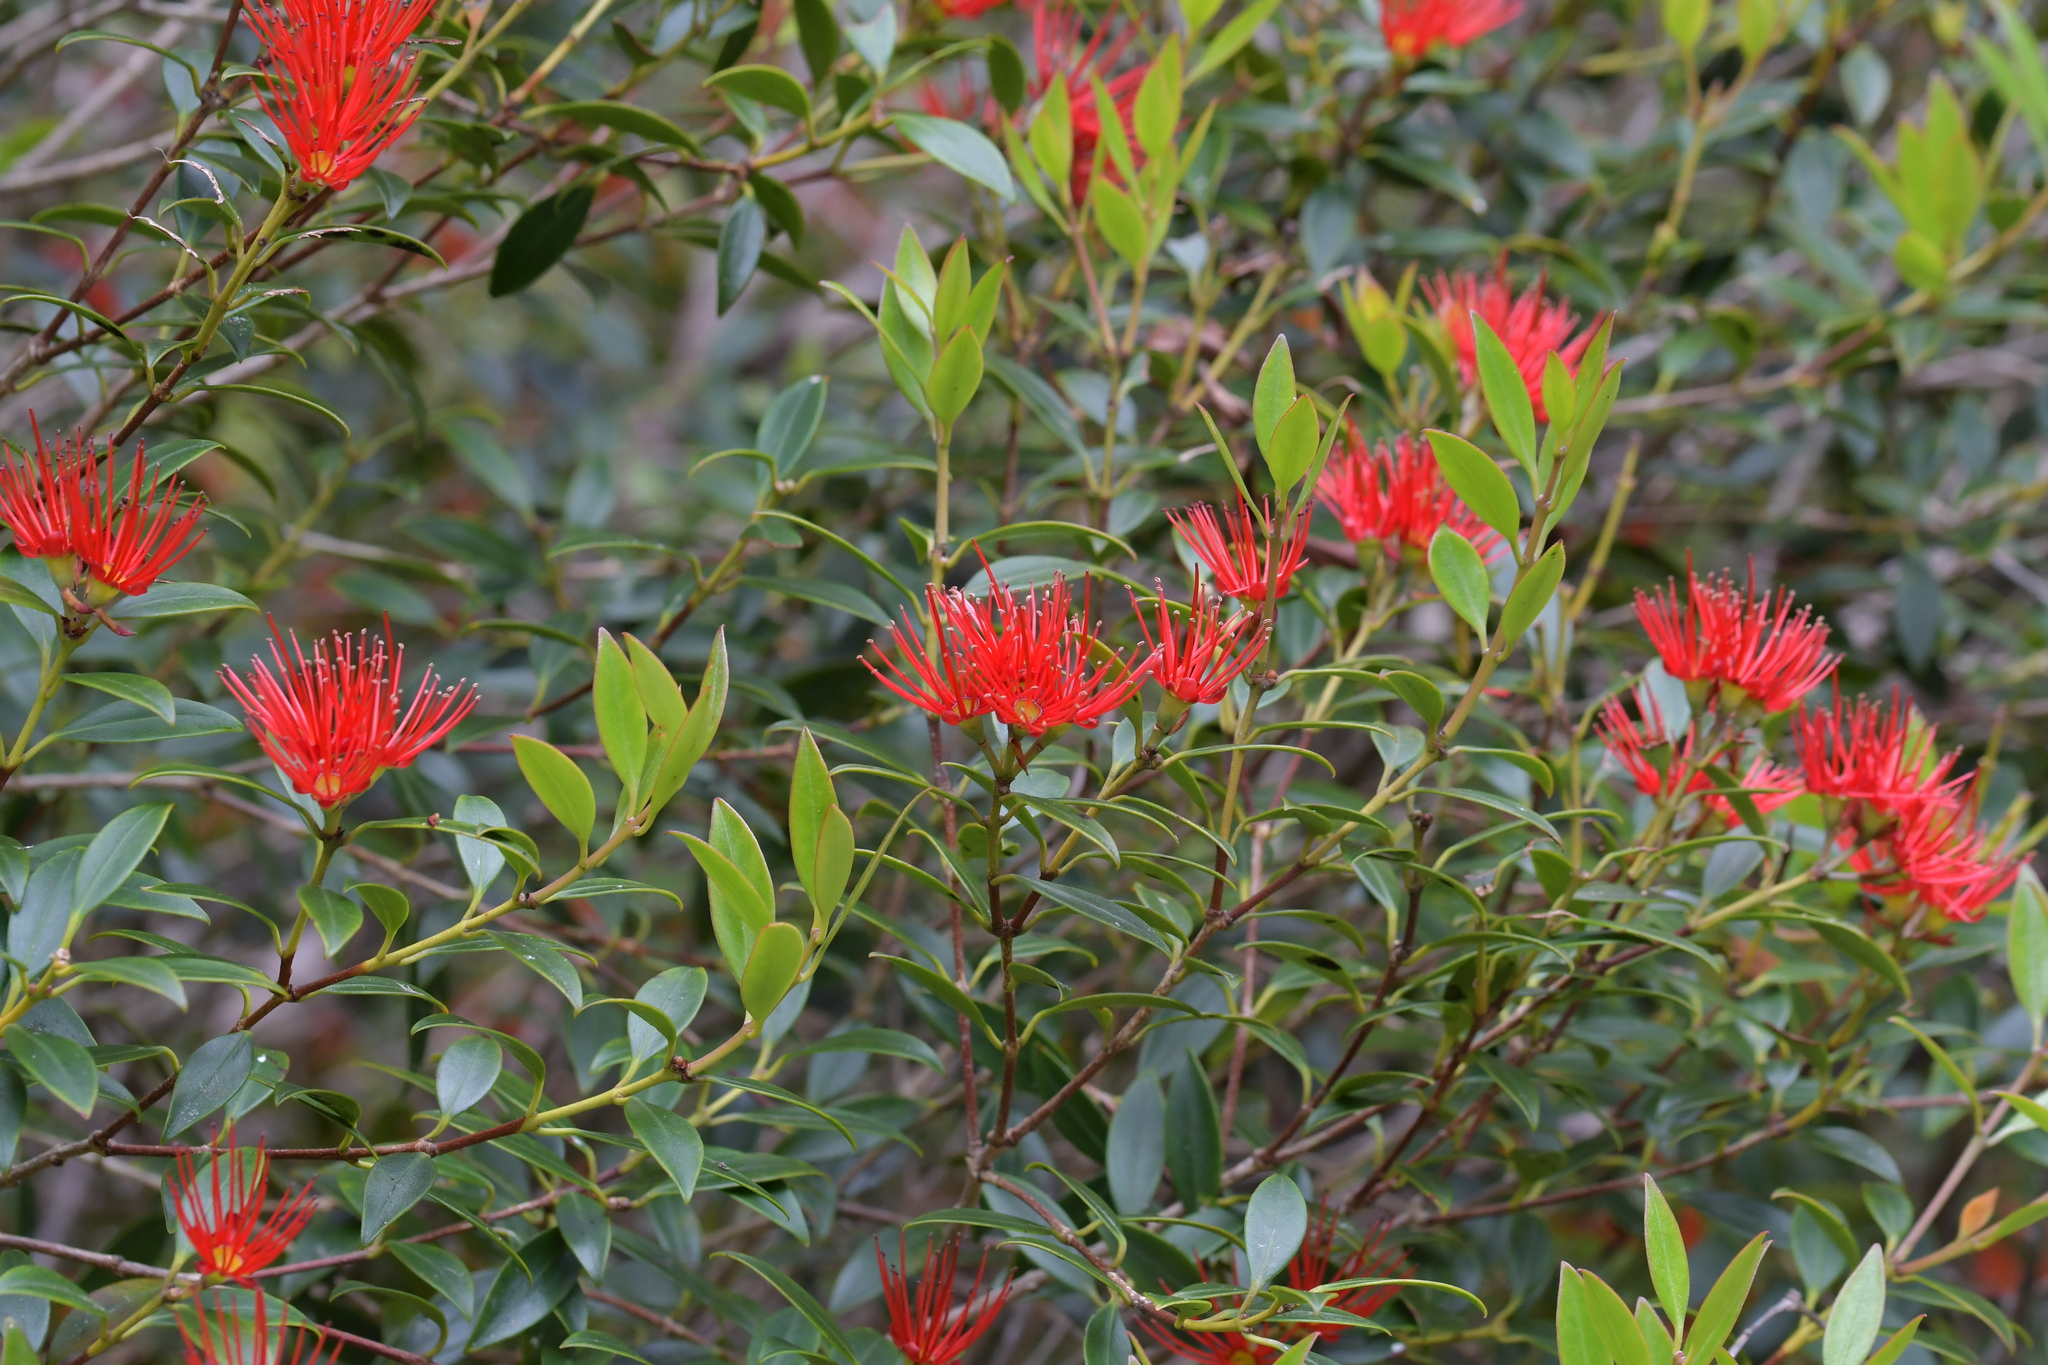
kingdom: Plantae
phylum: Tracheophyta
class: Magnoliopsida
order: Myrtales
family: Myrtaceae
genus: Metrosideros
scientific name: Metrosideros umbellata
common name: Southern rata
